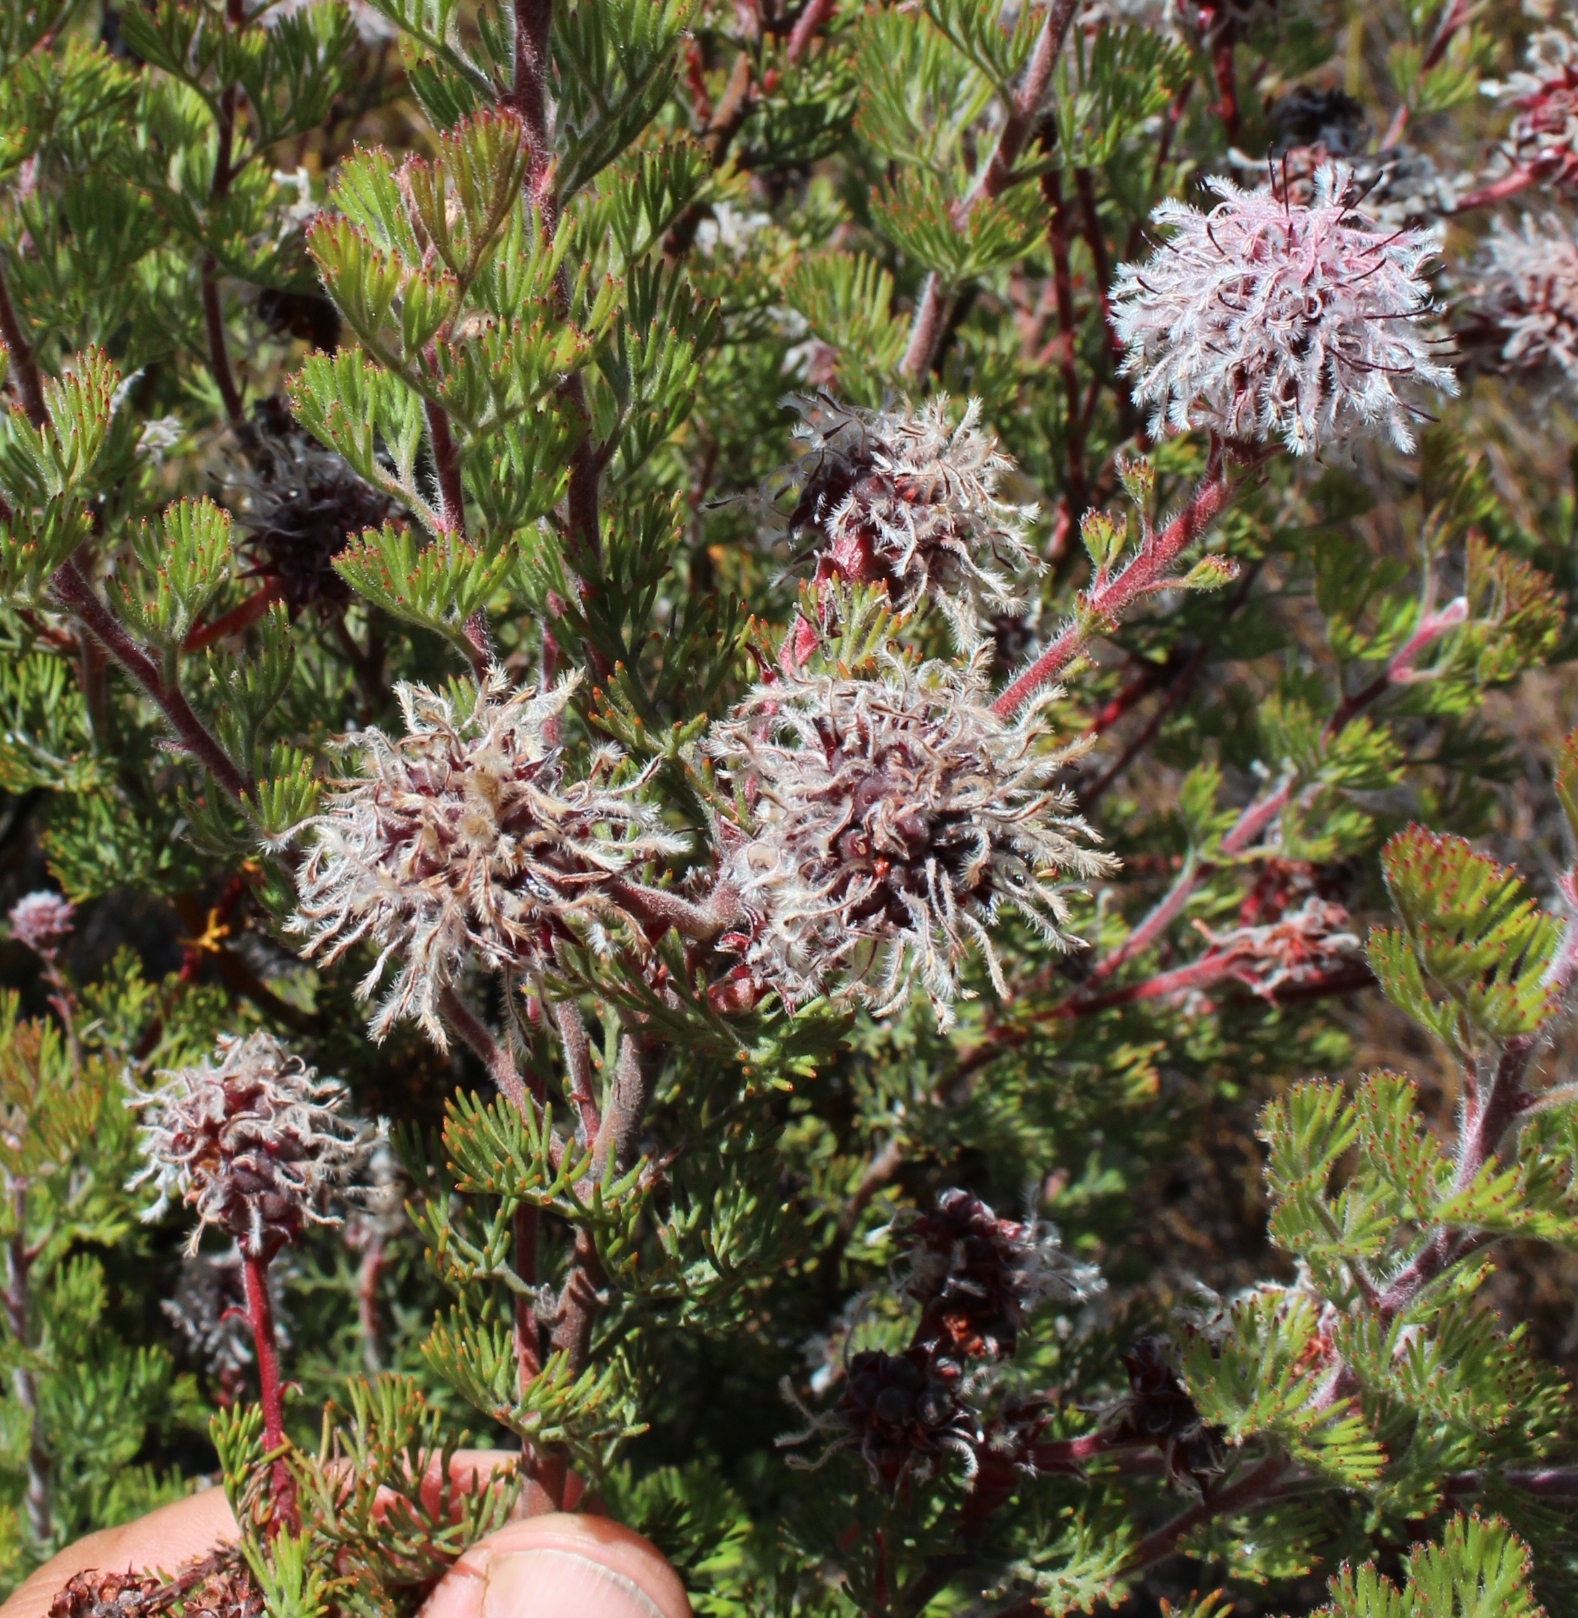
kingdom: Plantae
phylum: Tracheophyta
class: Magnoliopsida
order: Proteales
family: Proteaceae
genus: Serruria
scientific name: Serruria aitonii
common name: Marshmallow spiderhead
